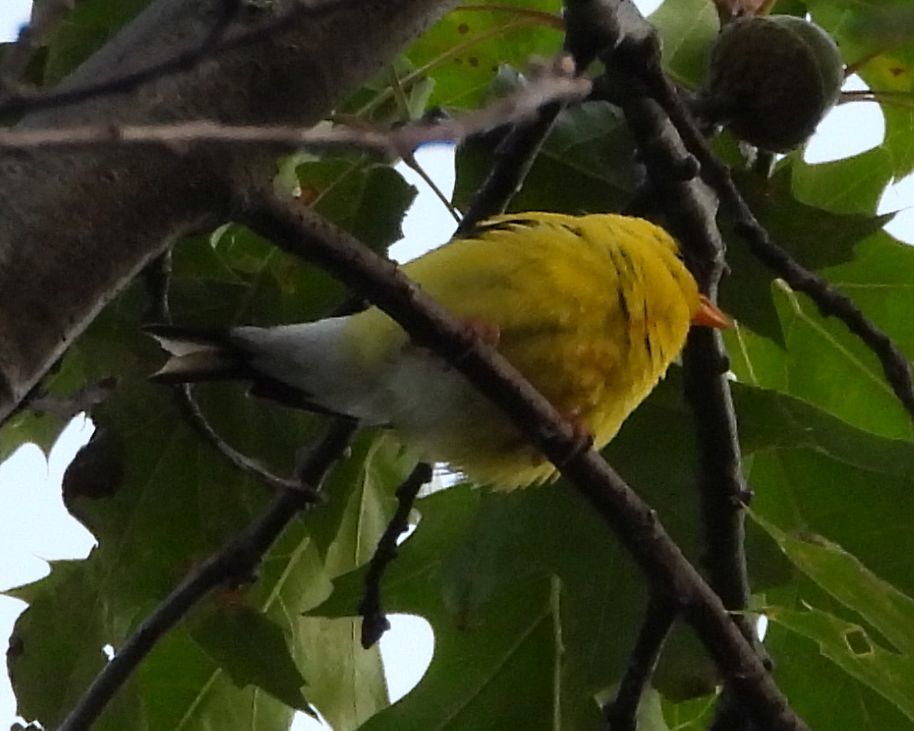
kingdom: Animalia
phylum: Chordata
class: Aves
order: Passeriformes
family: Fringillidae
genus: Spinus
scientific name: Spinus tristis
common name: American goldfinch
